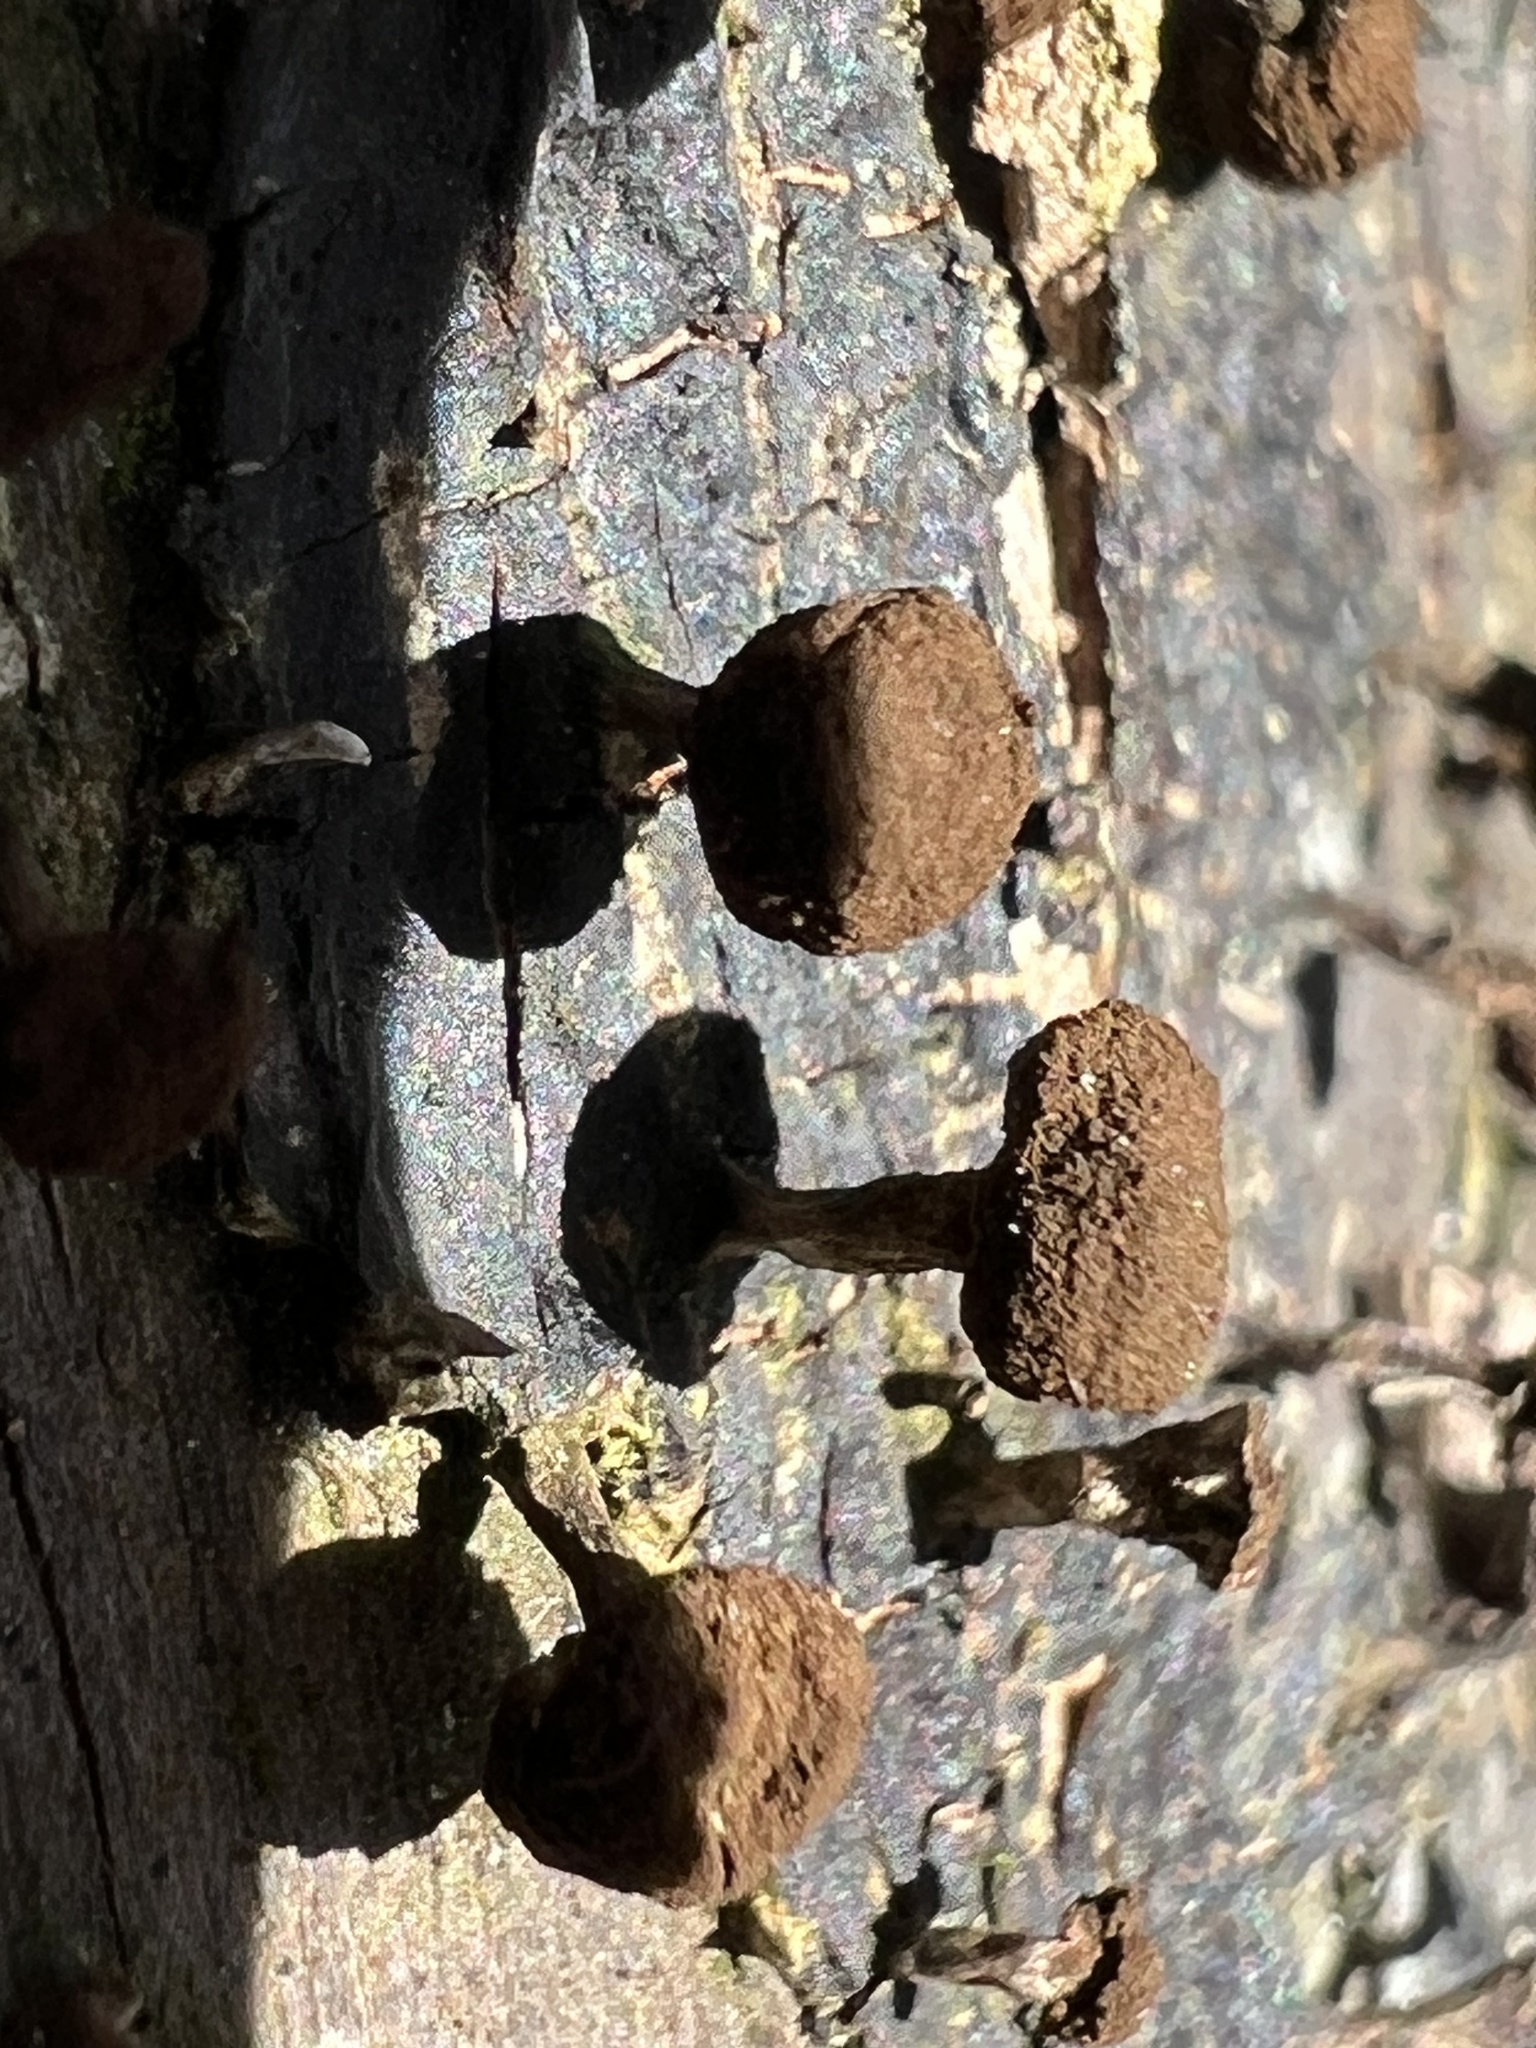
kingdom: Fungi
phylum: Basidiomycota
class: Atractiellomycetes
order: Atractiellales
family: Phleogenaceae
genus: Phleogena
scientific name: Phleogena faginea
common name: Fenugreek stalkball
